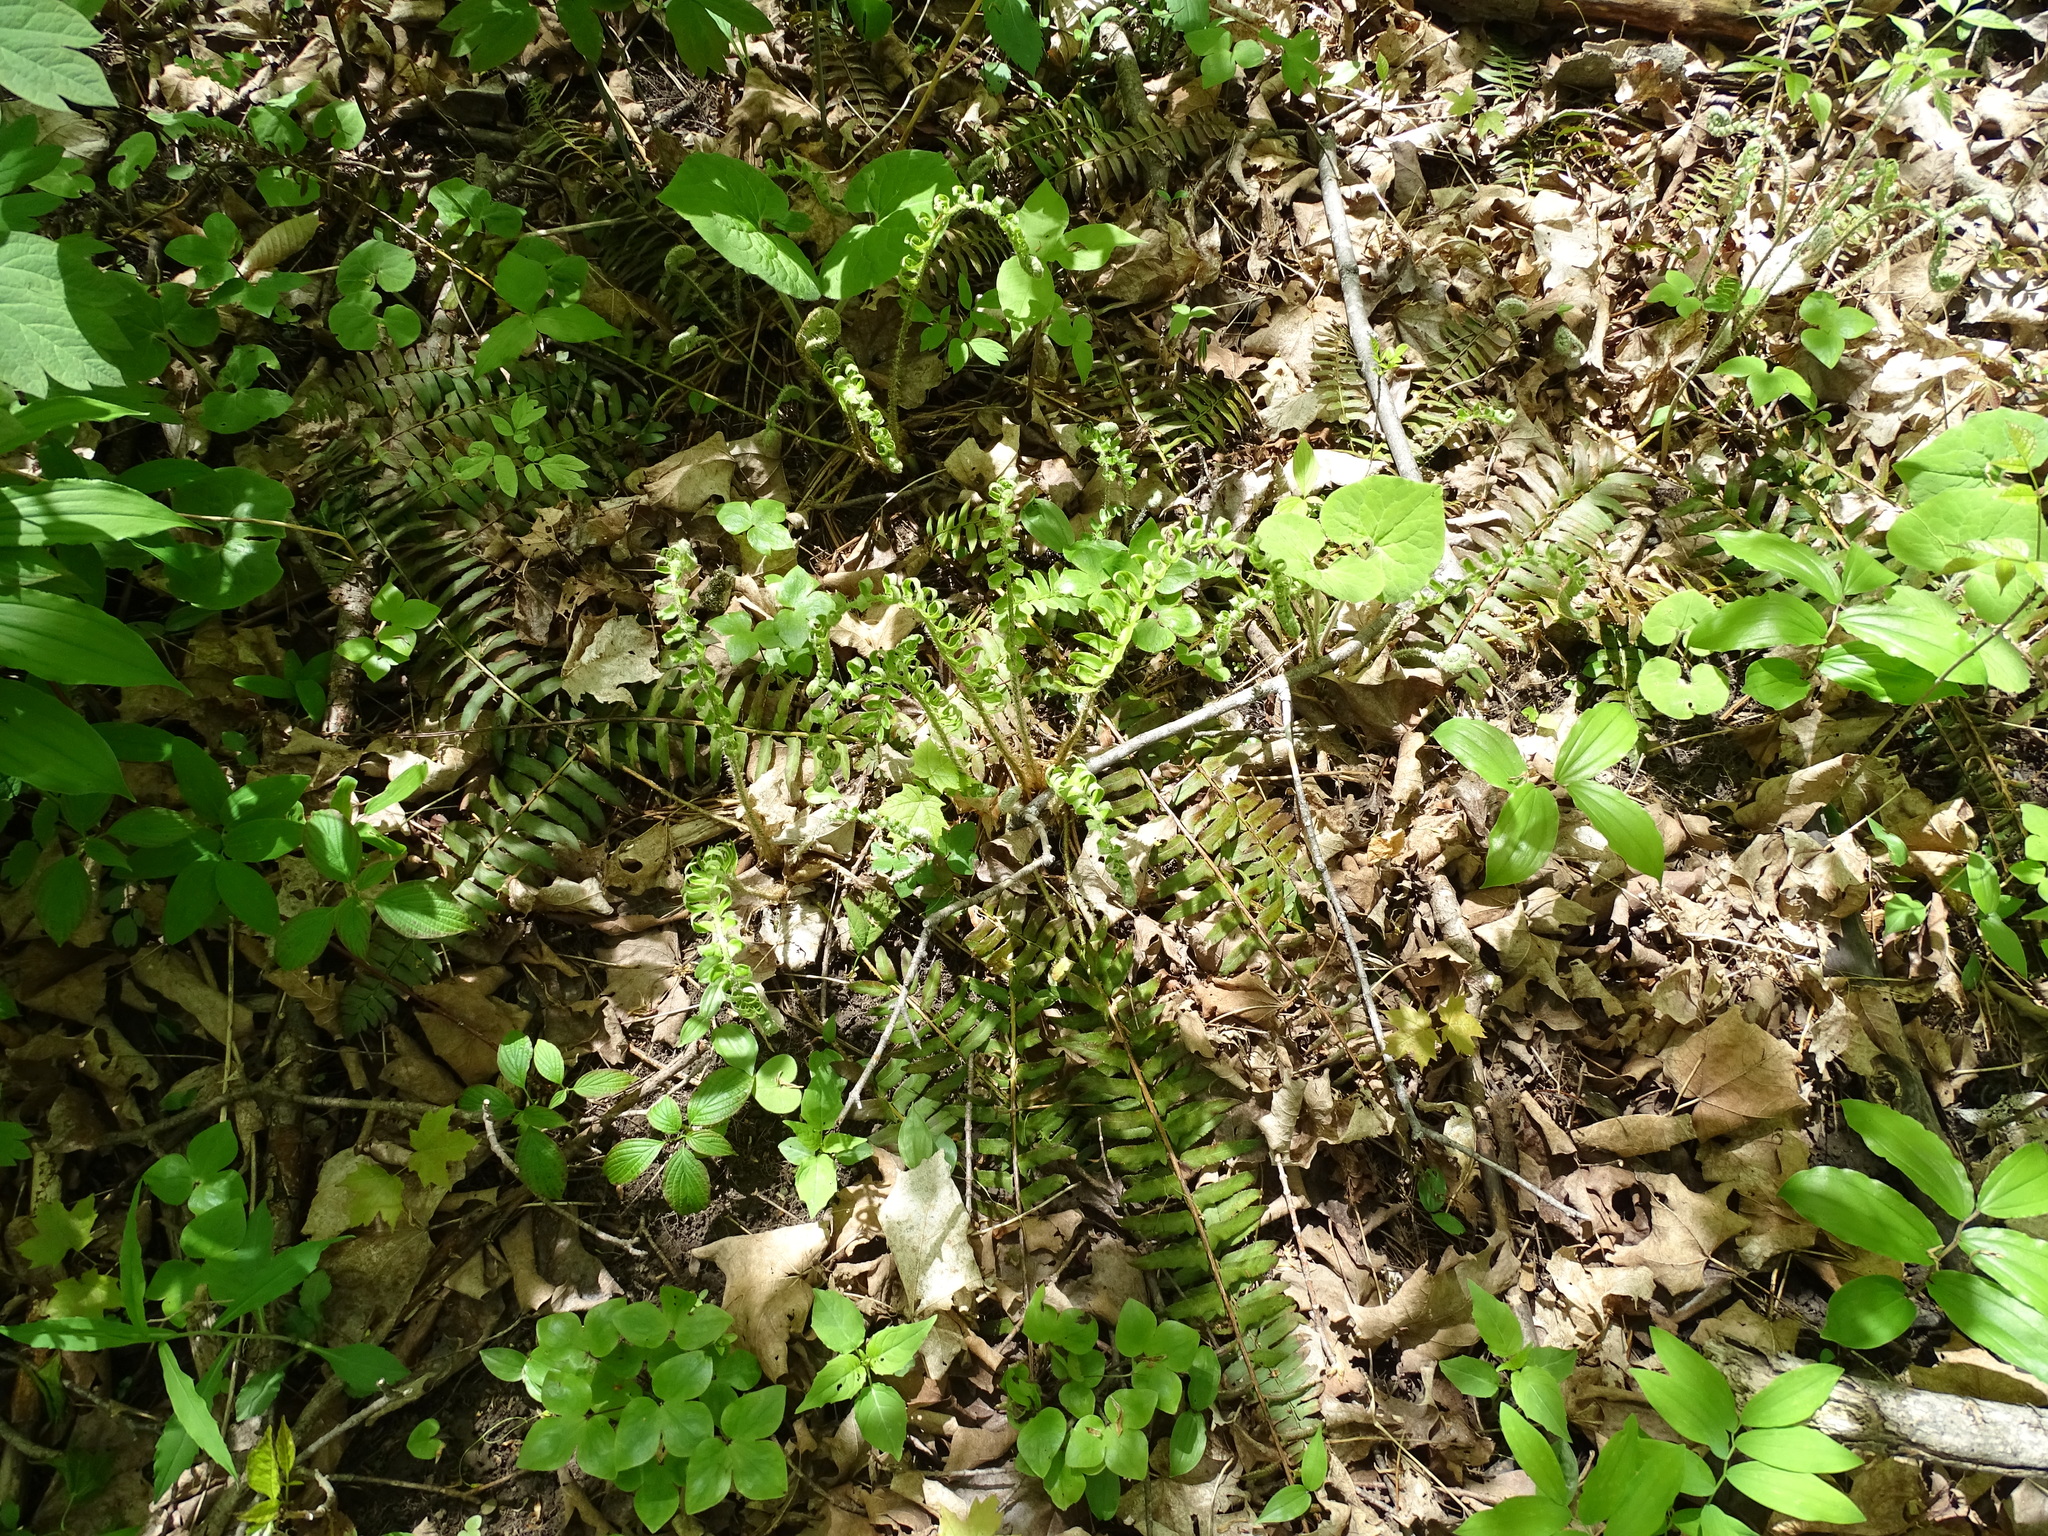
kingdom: Plantae
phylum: Tracheophyta
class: Polypodiopsida
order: Polypodiales
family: Dryopteridaceae
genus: Polystichum
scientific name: Polystichum acrostichoides
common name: Christmas fern
